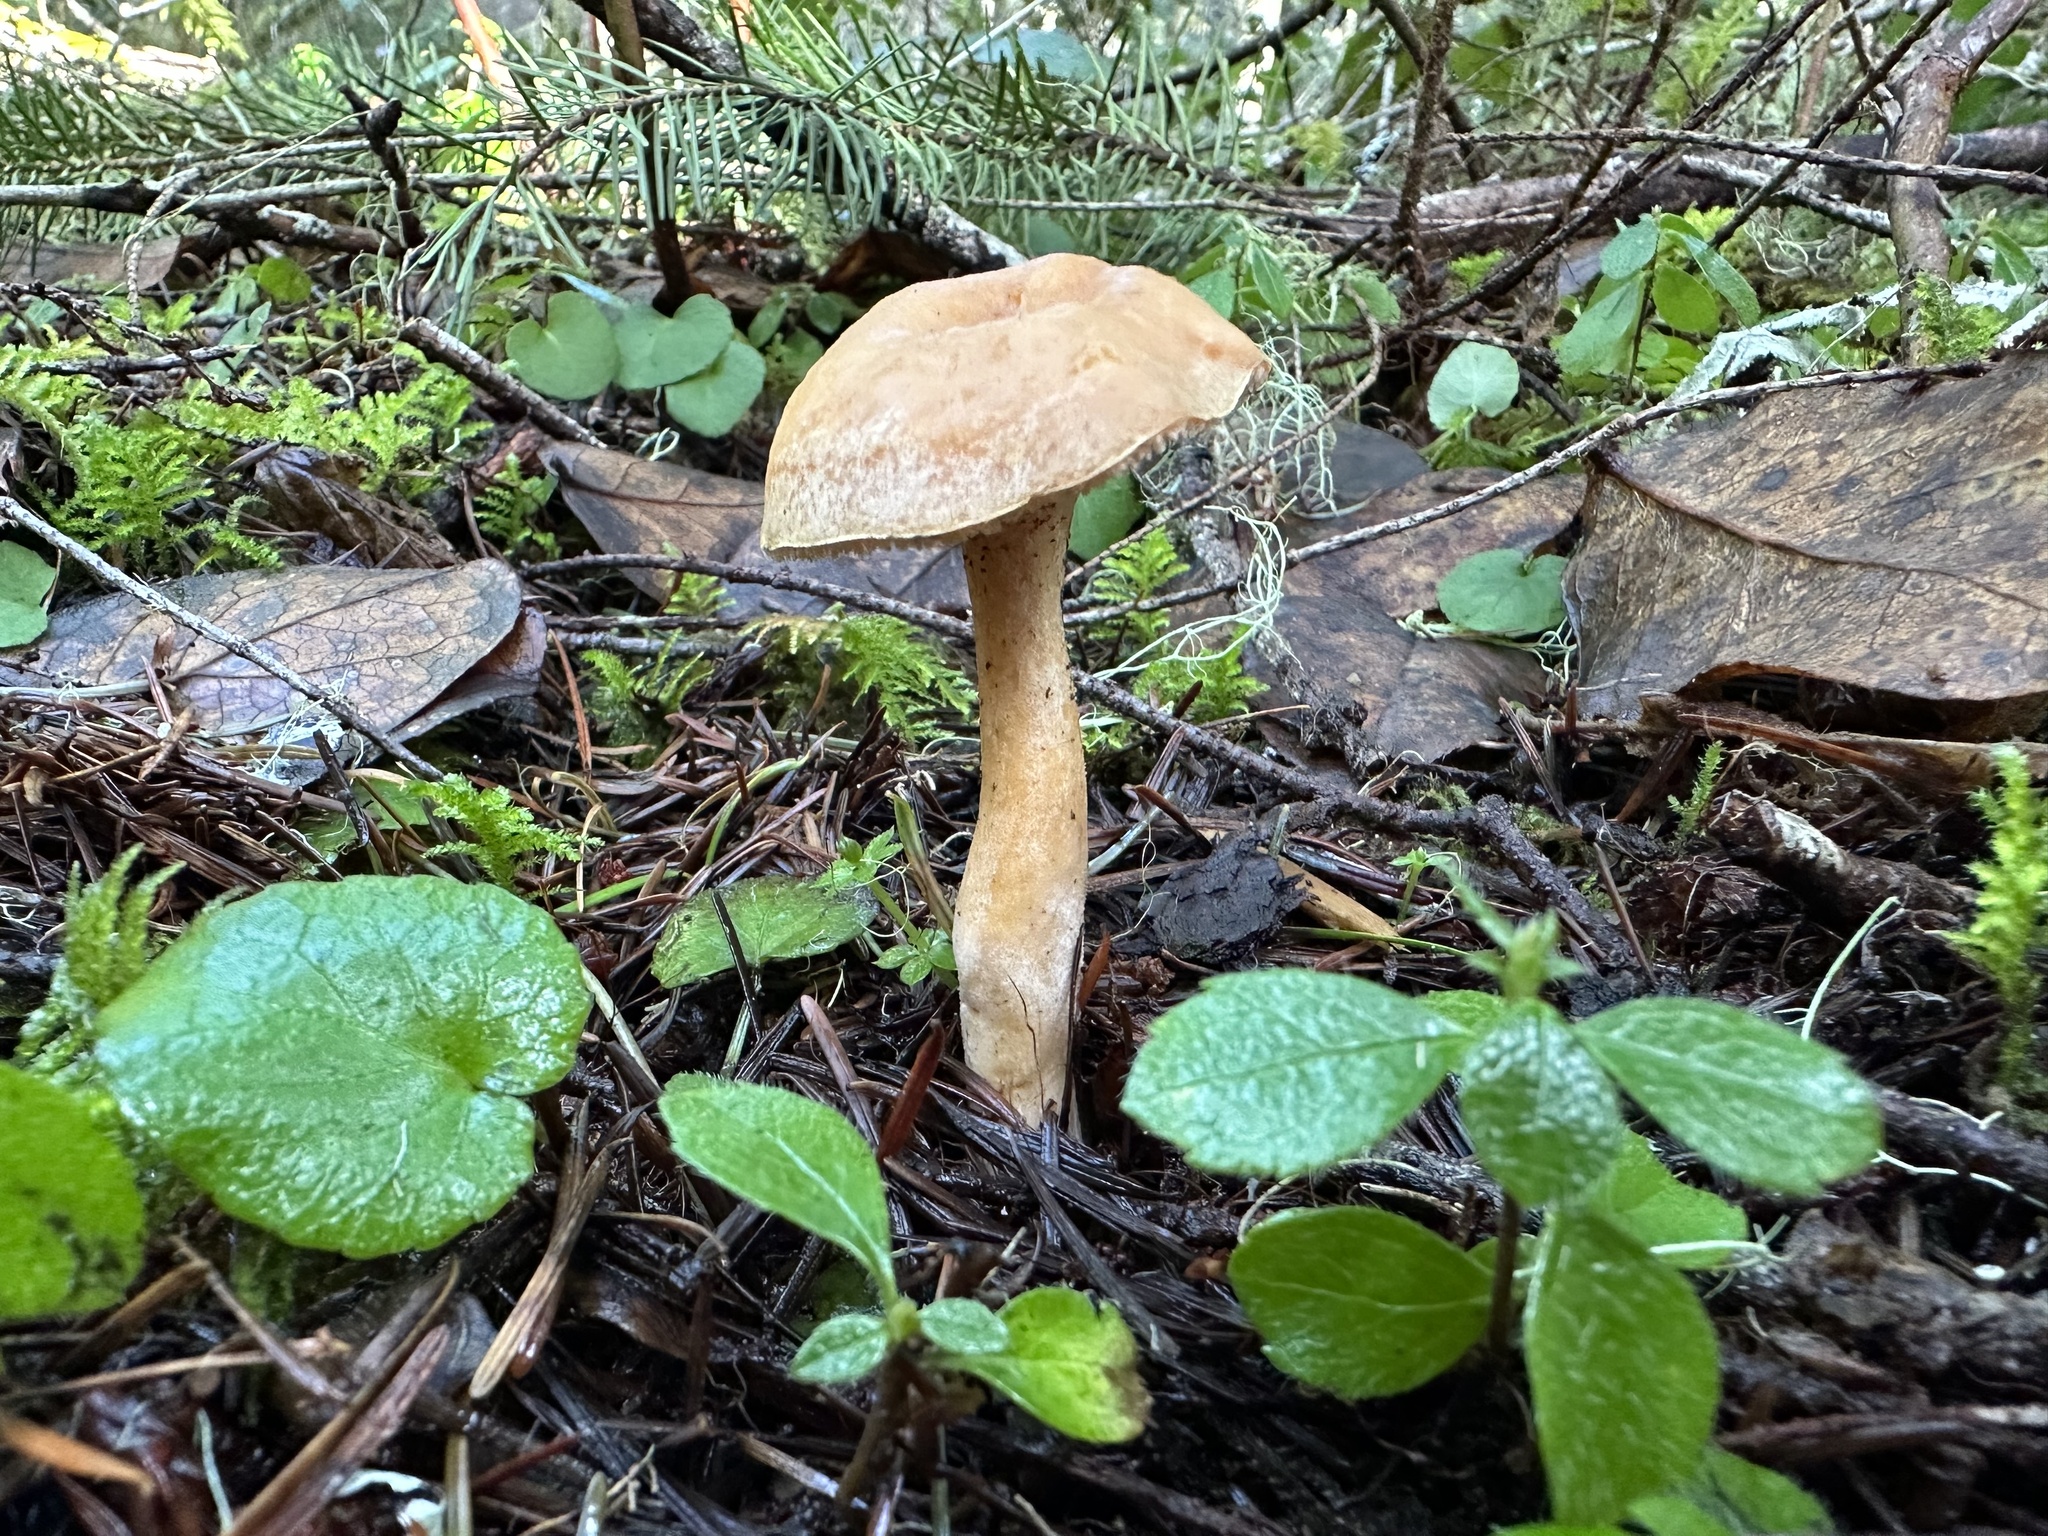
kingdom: Fungi
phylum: Basidiomycota
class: Agaricomycetes
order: Cantharellales
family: Hydnaceae
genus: Hydnum
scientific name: Hydnum oregonense
